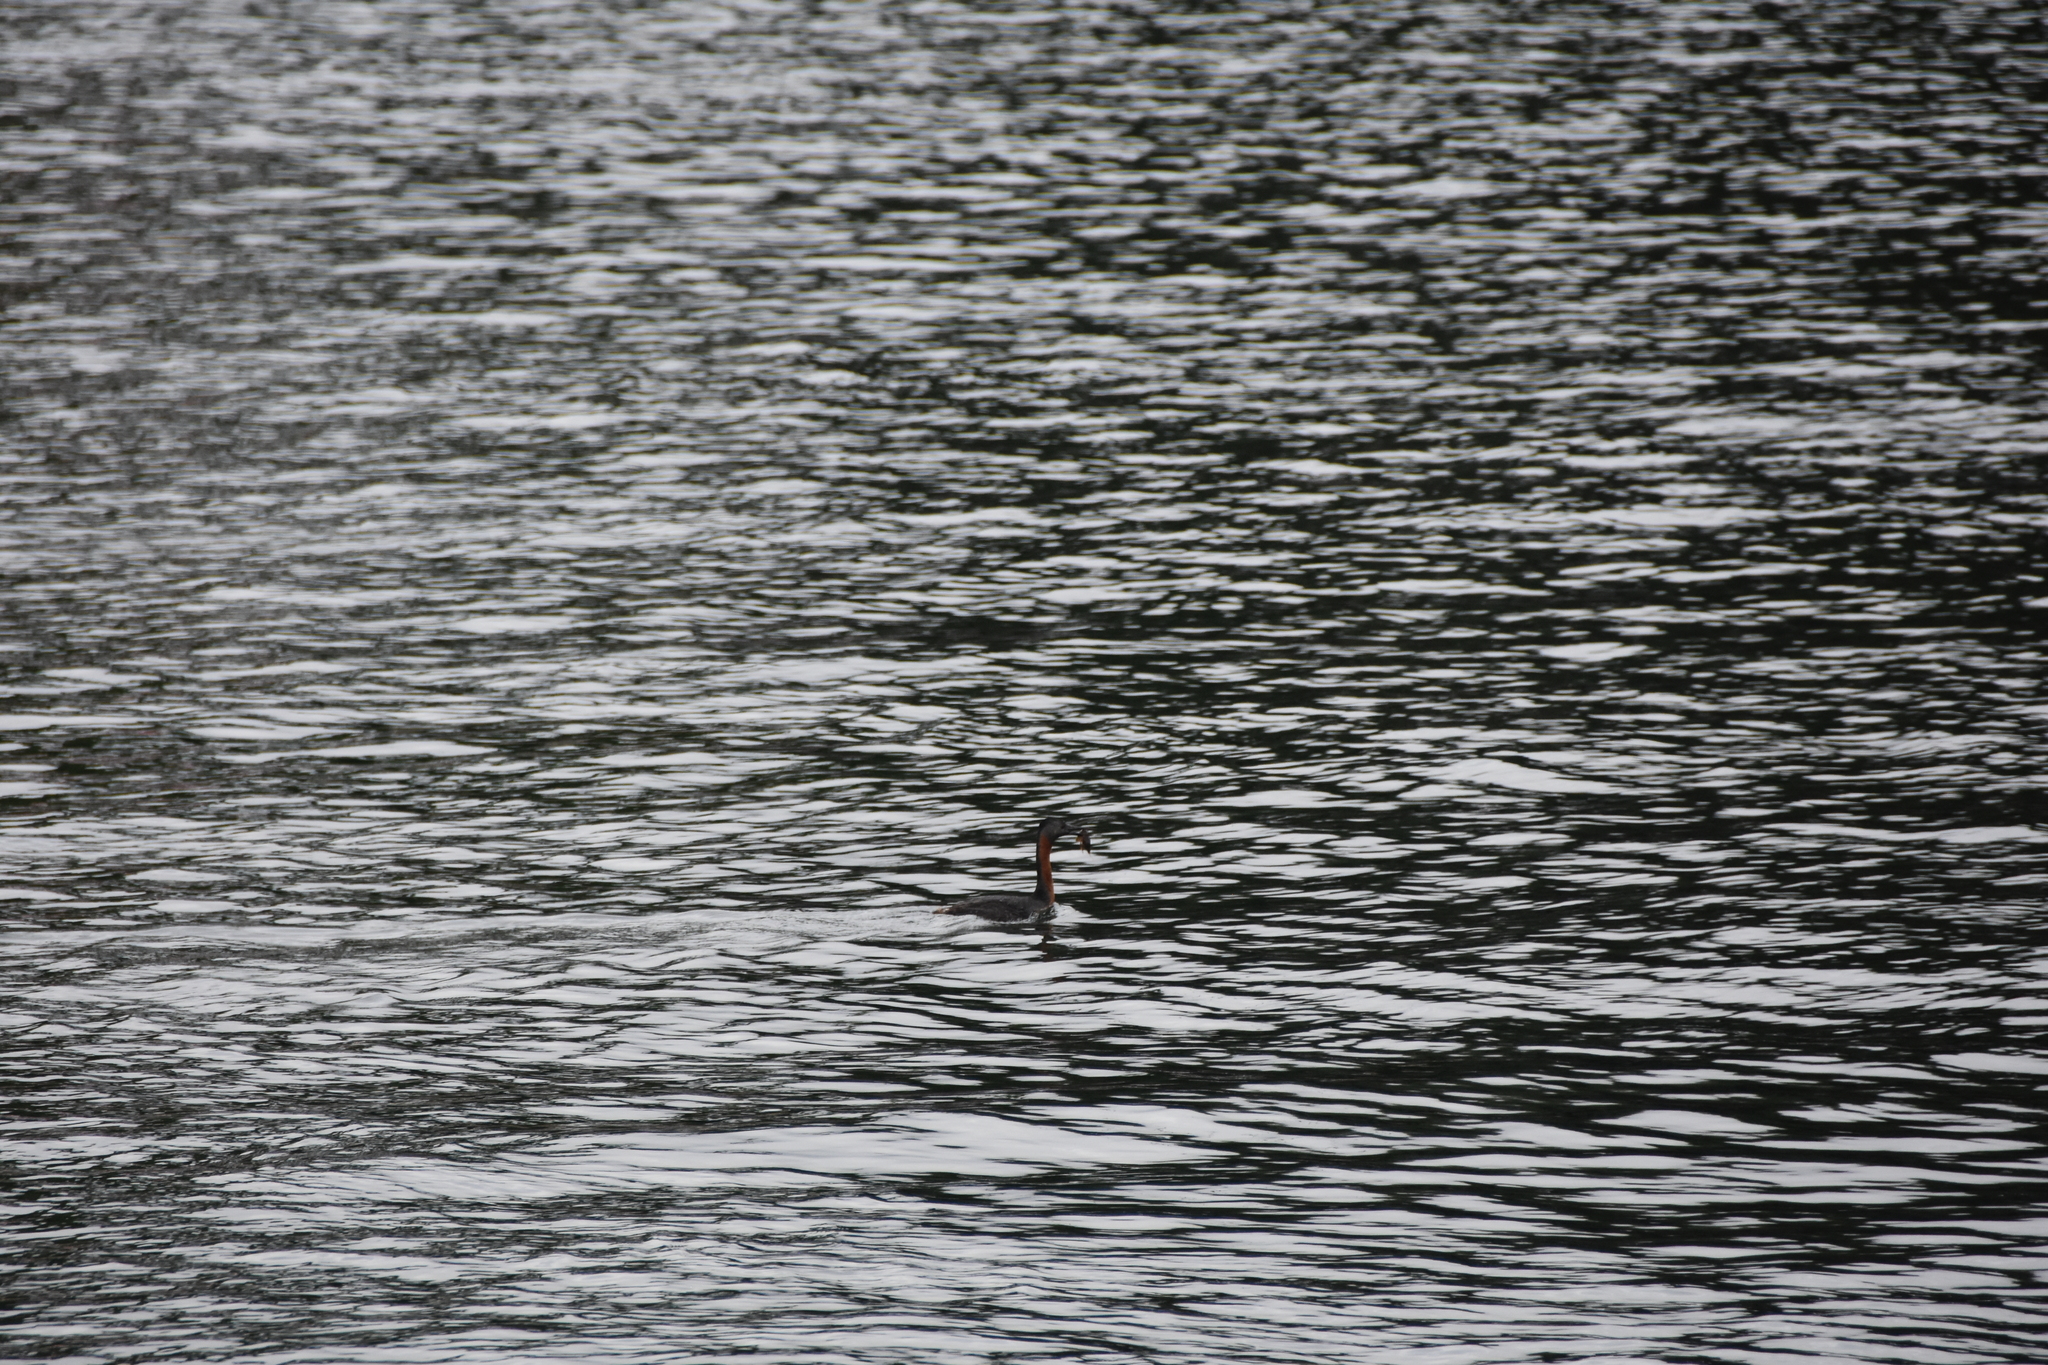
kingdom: Animalia
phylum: Chordata
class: Aves
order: Podicipediformes
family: Podicipedidae
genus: Podiceps
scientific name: Podiceps major
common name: Great grebe
